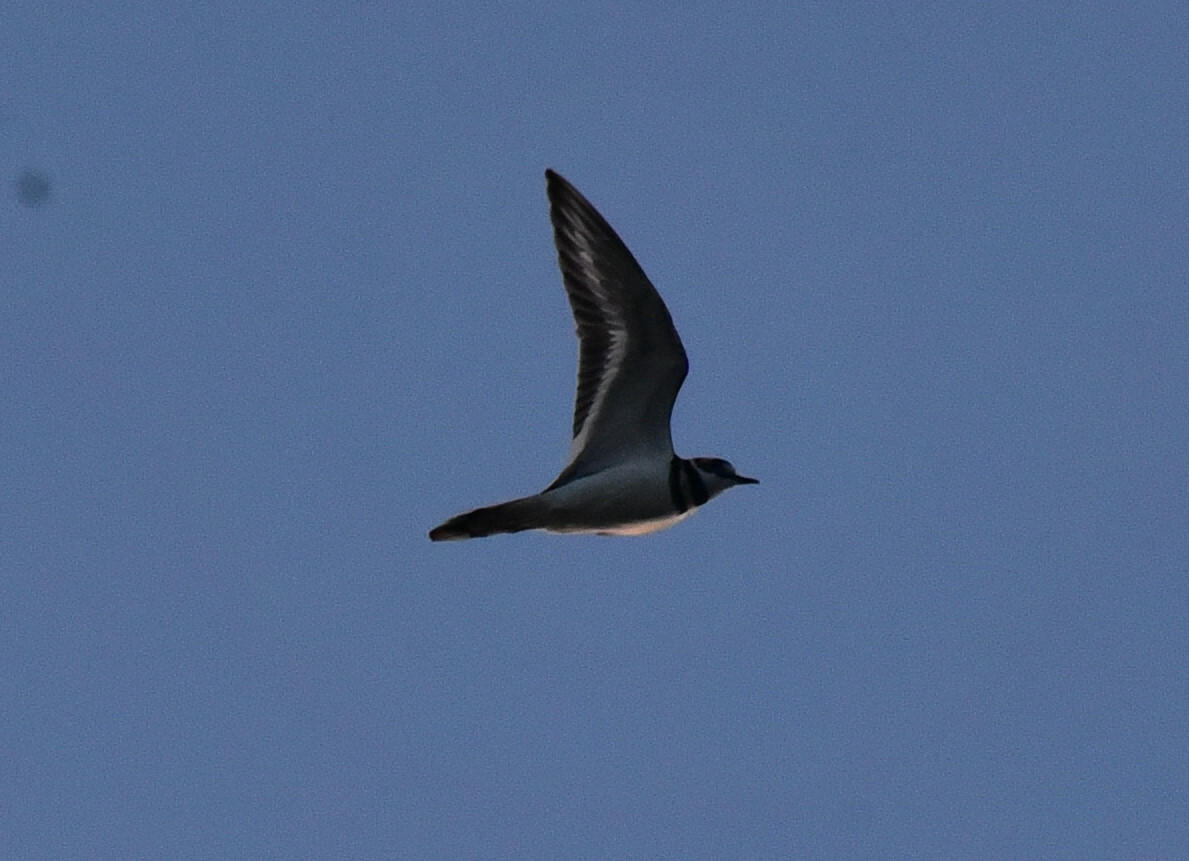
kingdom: Animalia
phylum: Chordata
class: Aves
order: Charadriiformes
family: Charadriidae
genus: Charadrius
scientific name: Charadrius vociferus
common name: Killdeer
